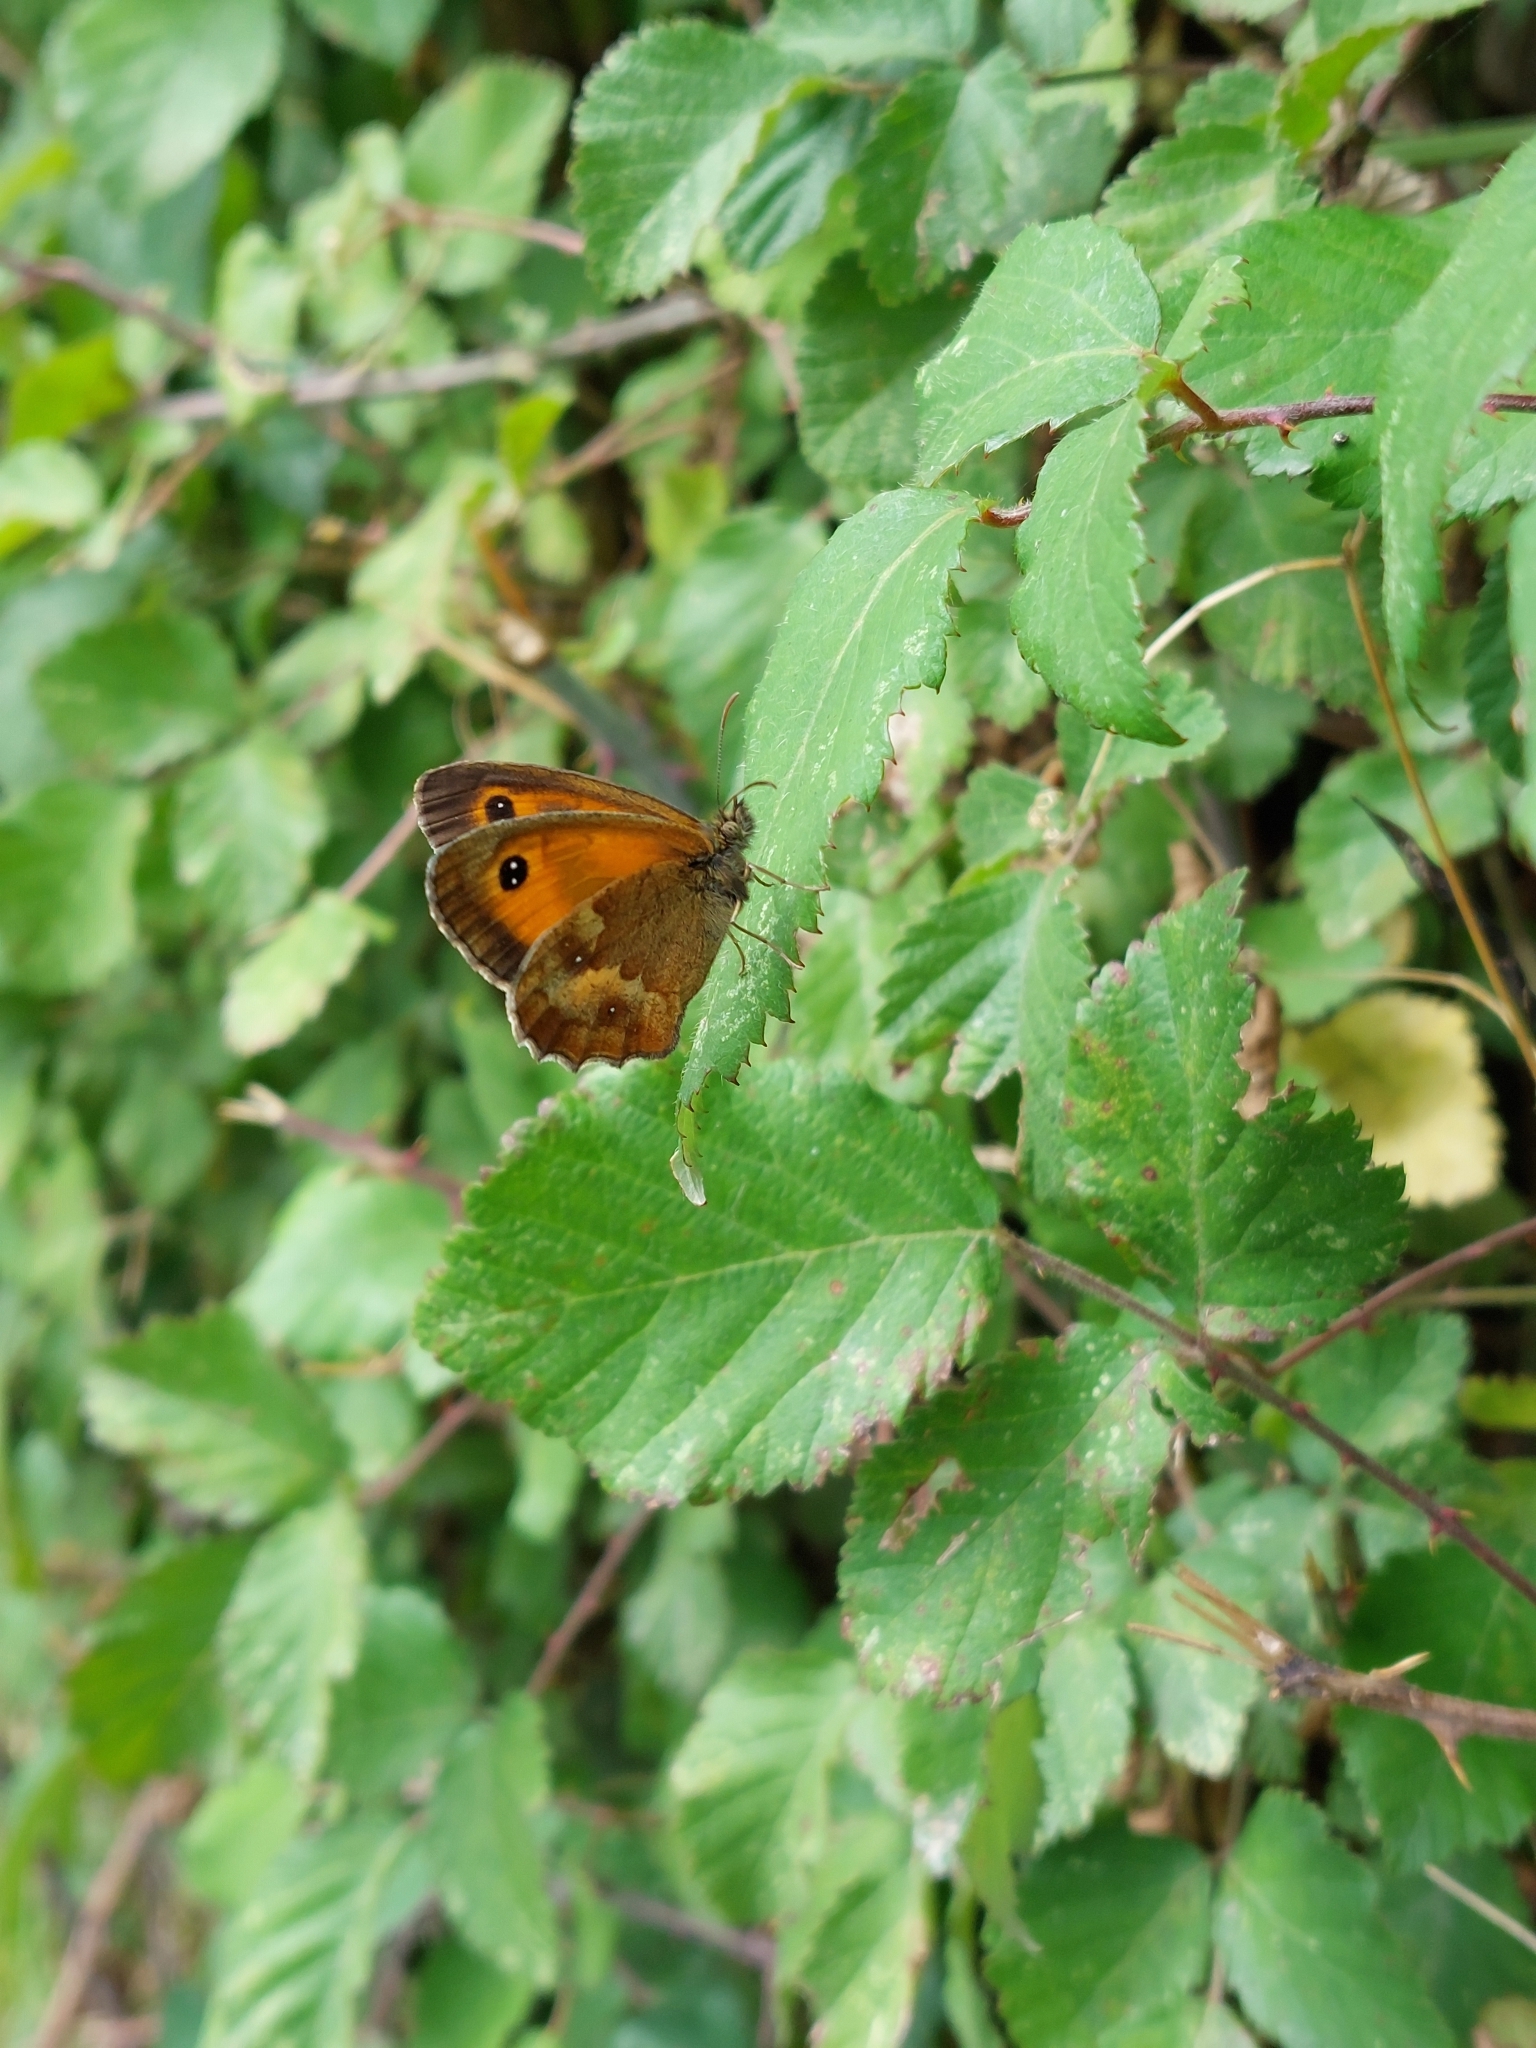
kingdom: Animalia
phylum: Arthropoda
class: Insecta
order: Lepidoptera
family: Nymphalidae
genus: Pyronia
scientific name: Pyronia tithonus
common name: Gatekeeper
